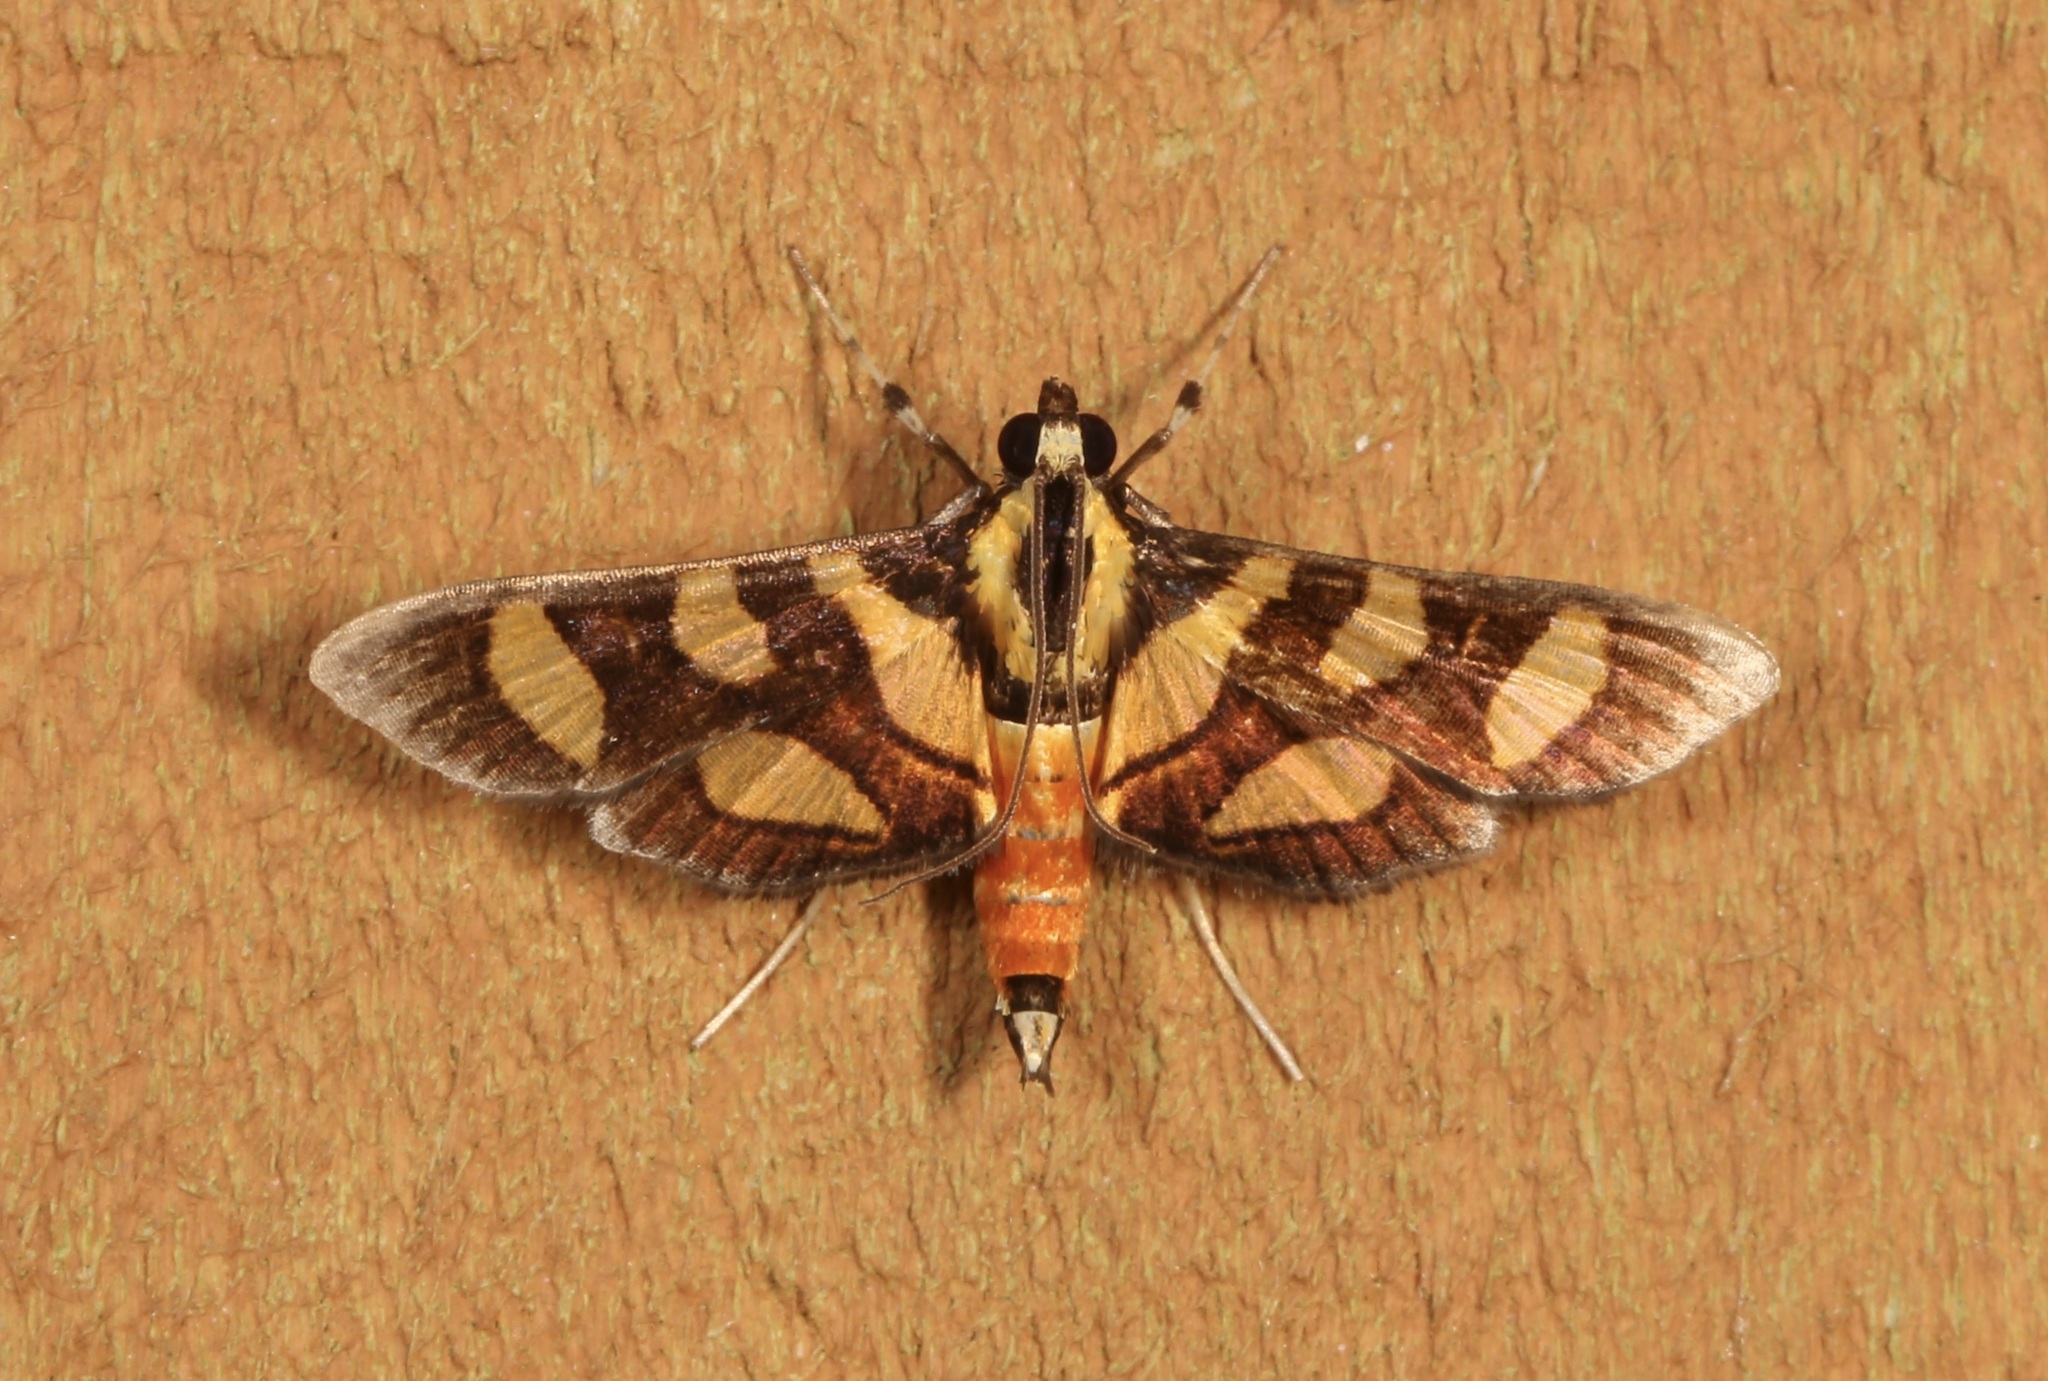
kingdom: Animalia
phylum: Arthropoda
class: Insecta
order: Lepidoptera
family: Crambidae
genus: Syngamia
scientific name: Syngamia florella
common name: Orange-spotted flower moth
